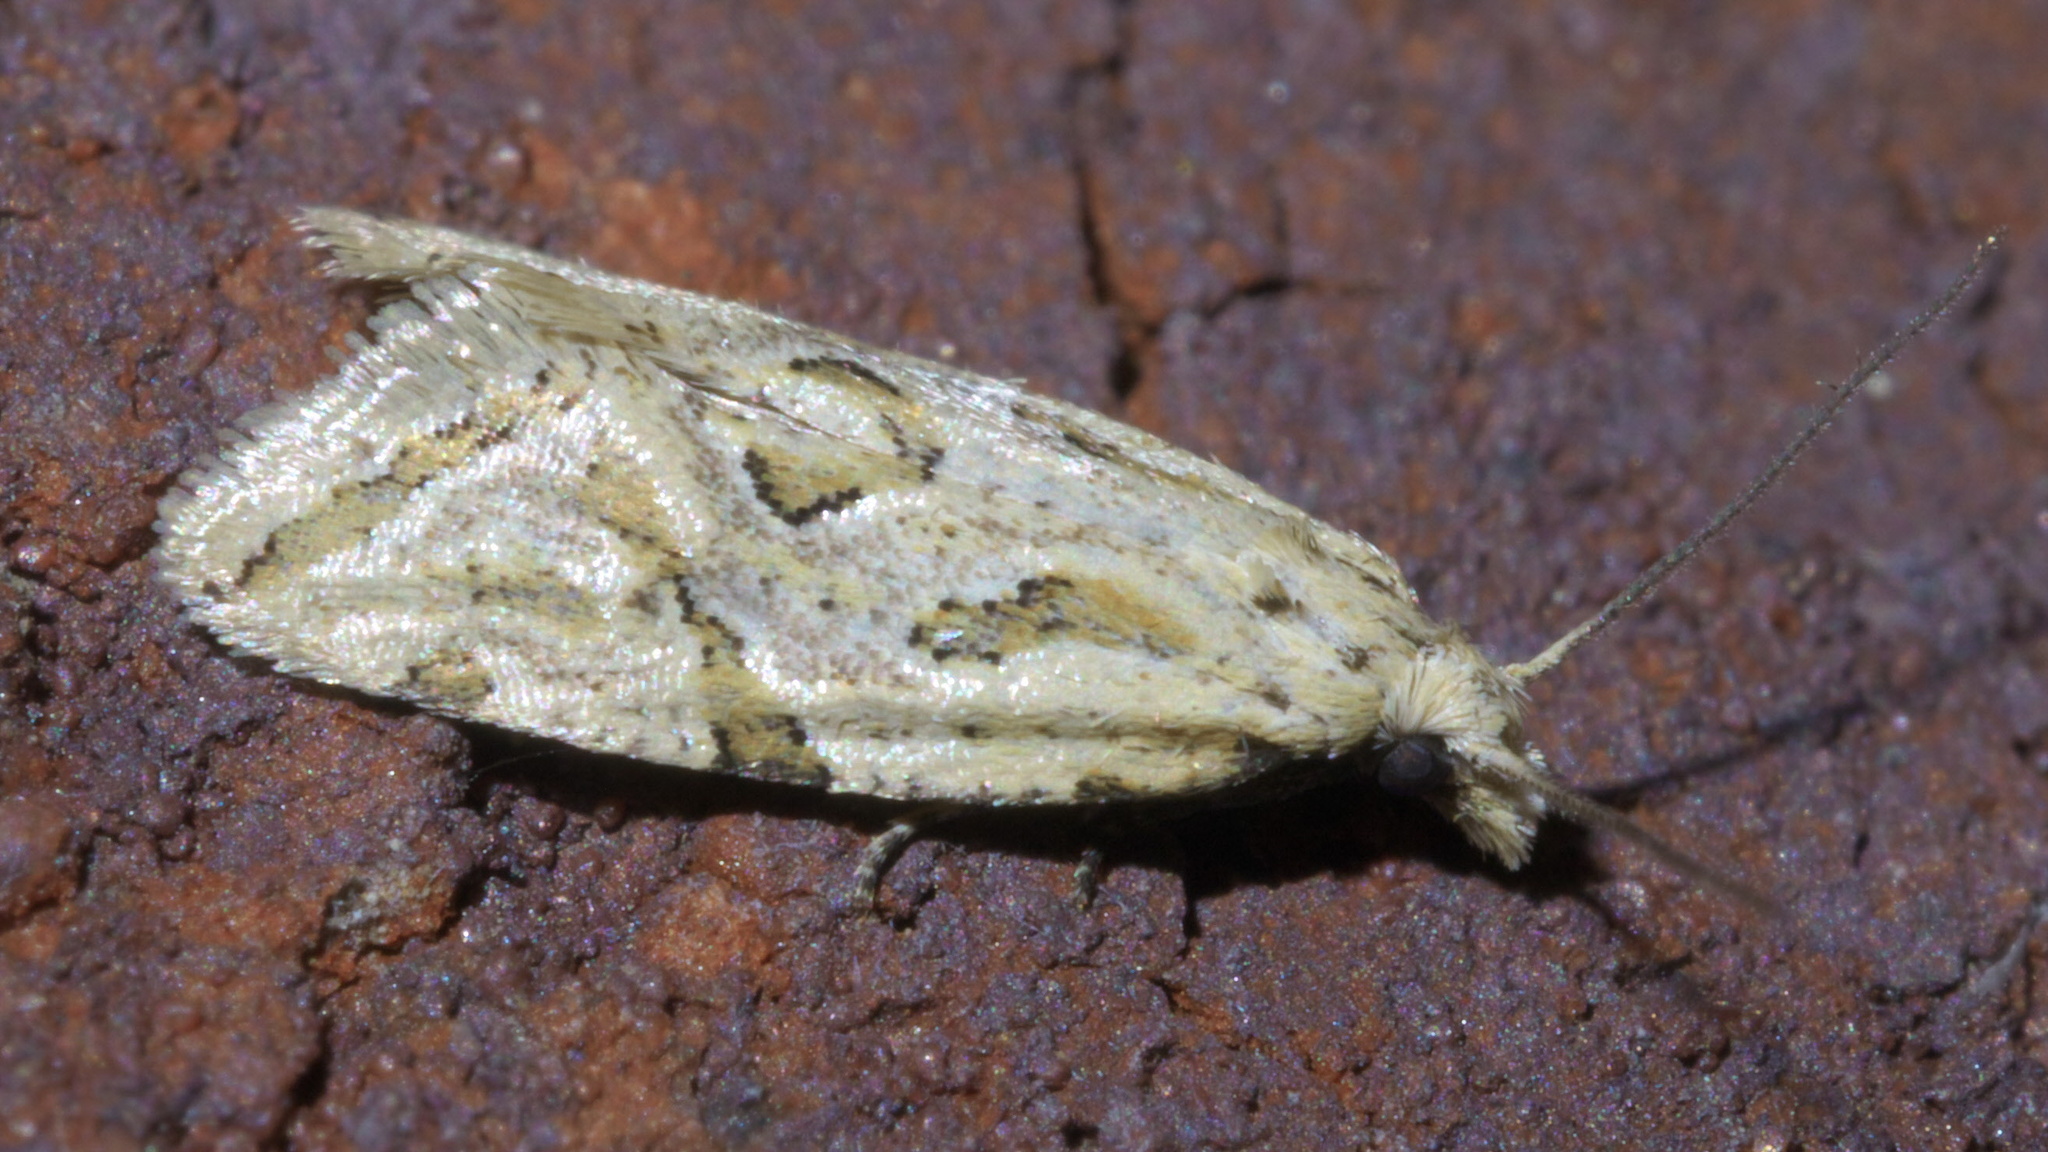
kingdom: Animalia
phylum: Arthropoda
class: Insecta
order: Lepidoptera
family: Tortricidae
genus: Aethes
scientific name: Aethes heleniana
